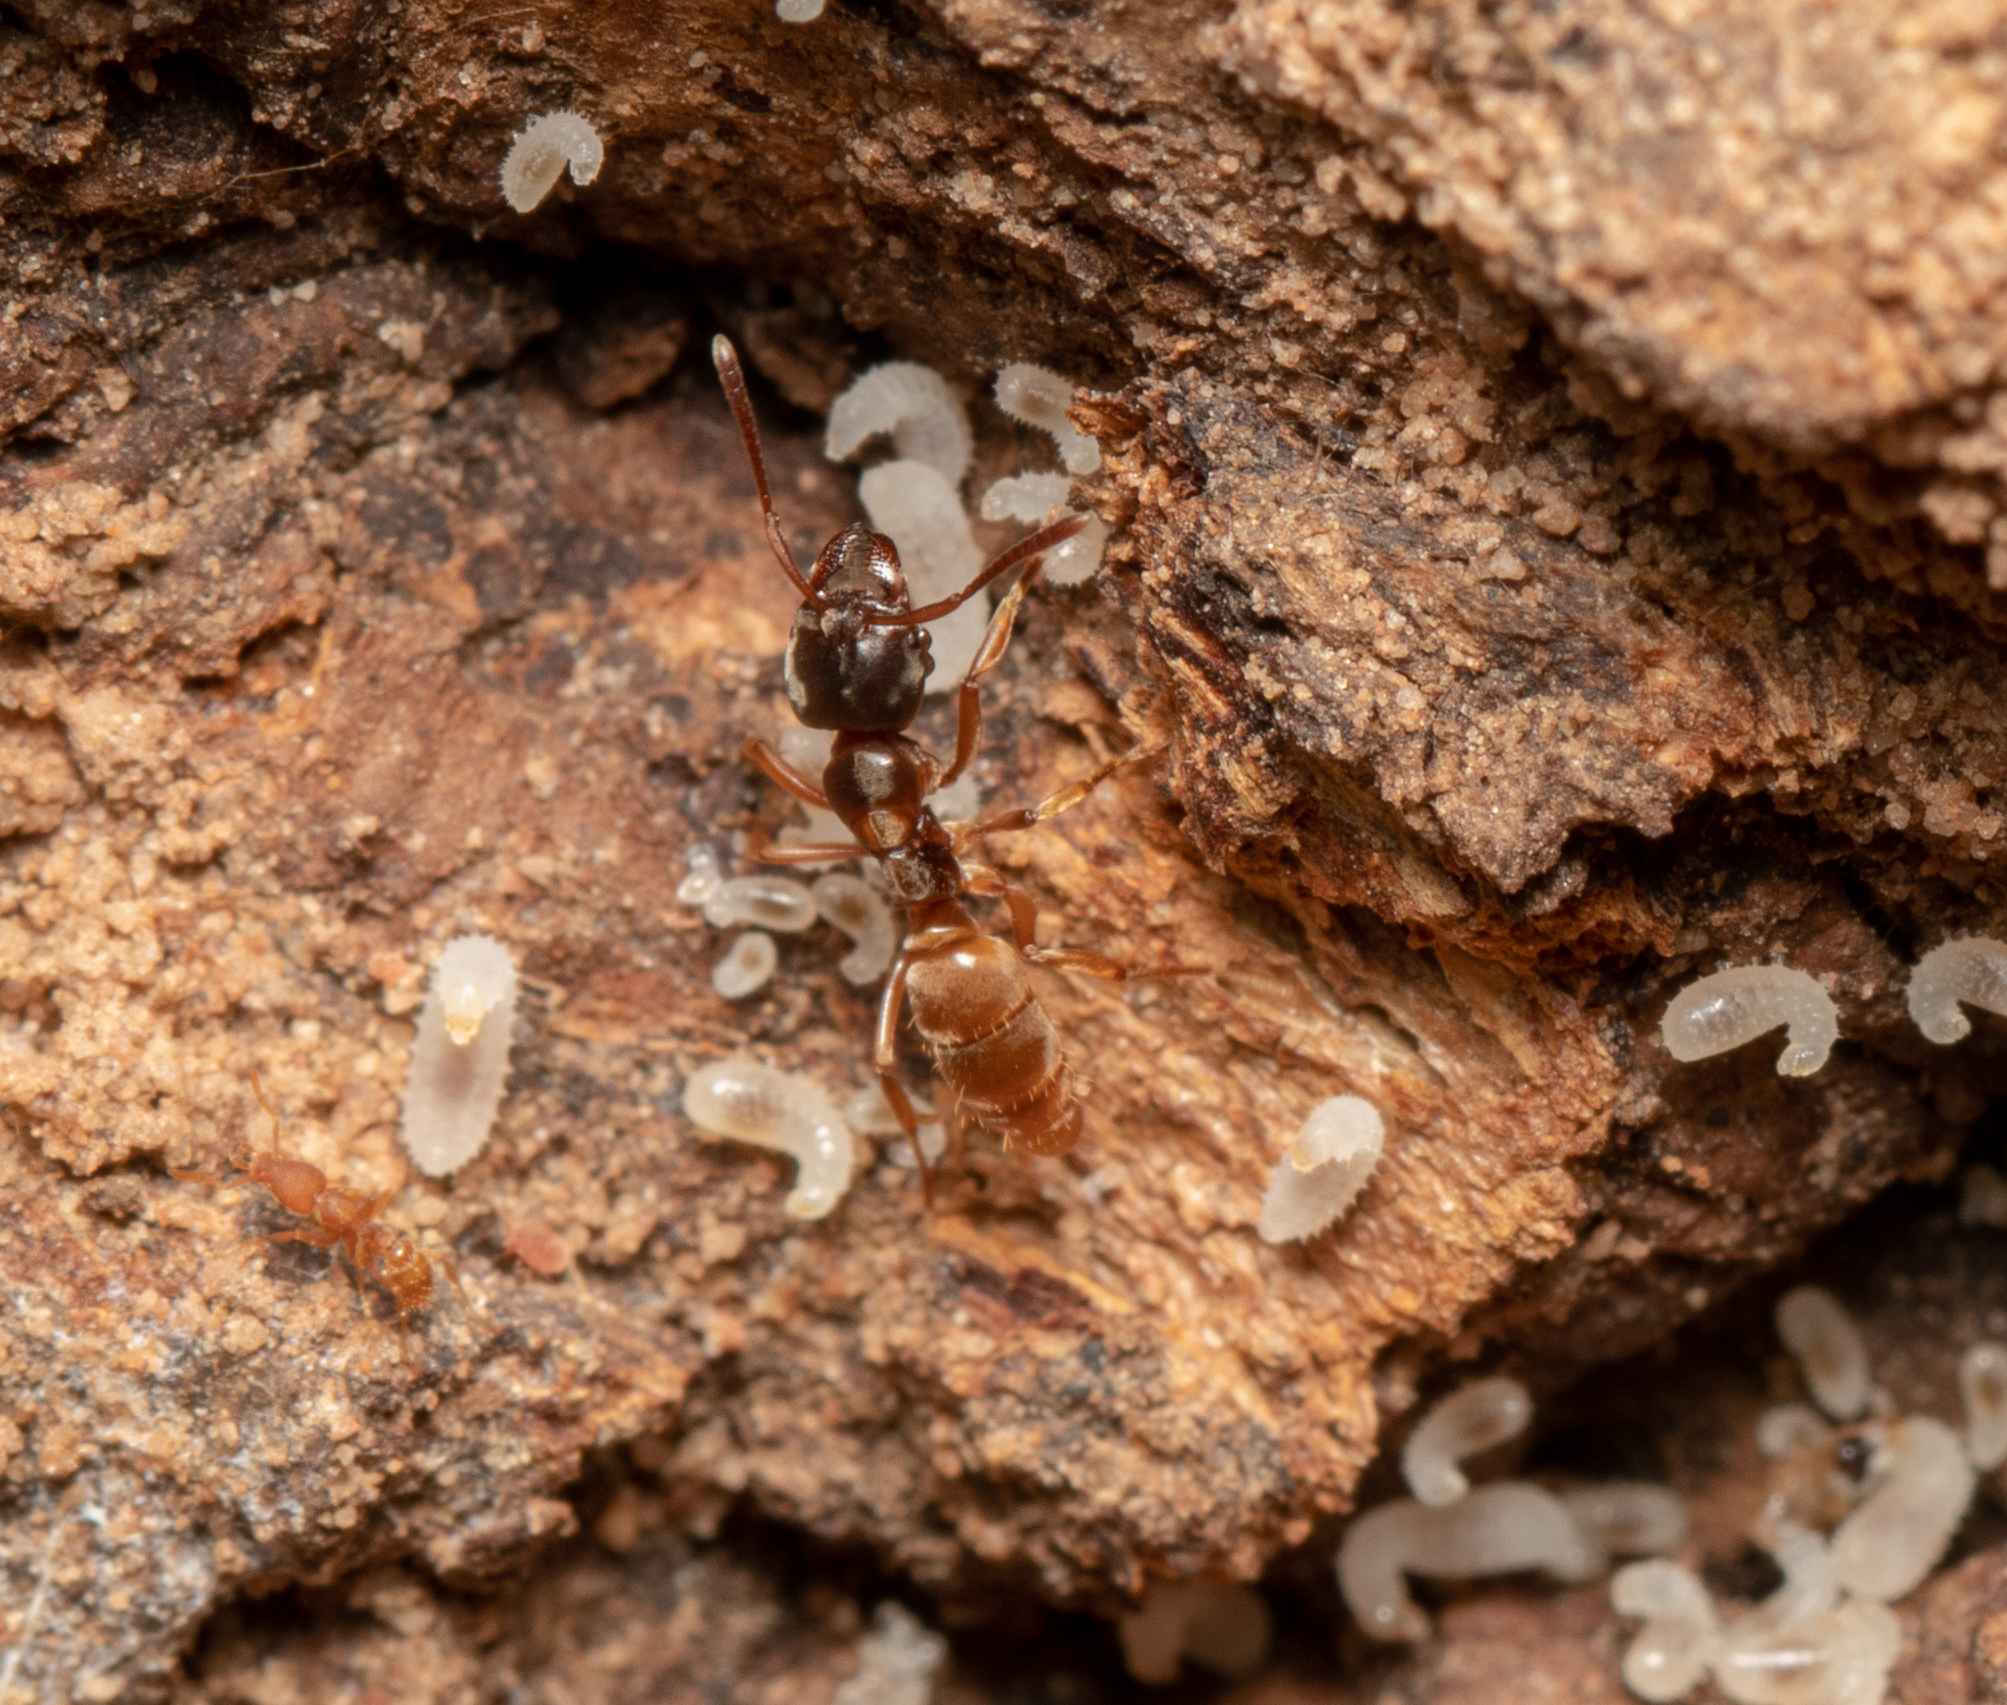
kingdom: Animalia
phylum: Arthropoda
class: Insecta
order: Hymenoptera
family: Formicidae
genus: Brachyponera
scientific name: Brachyponera
